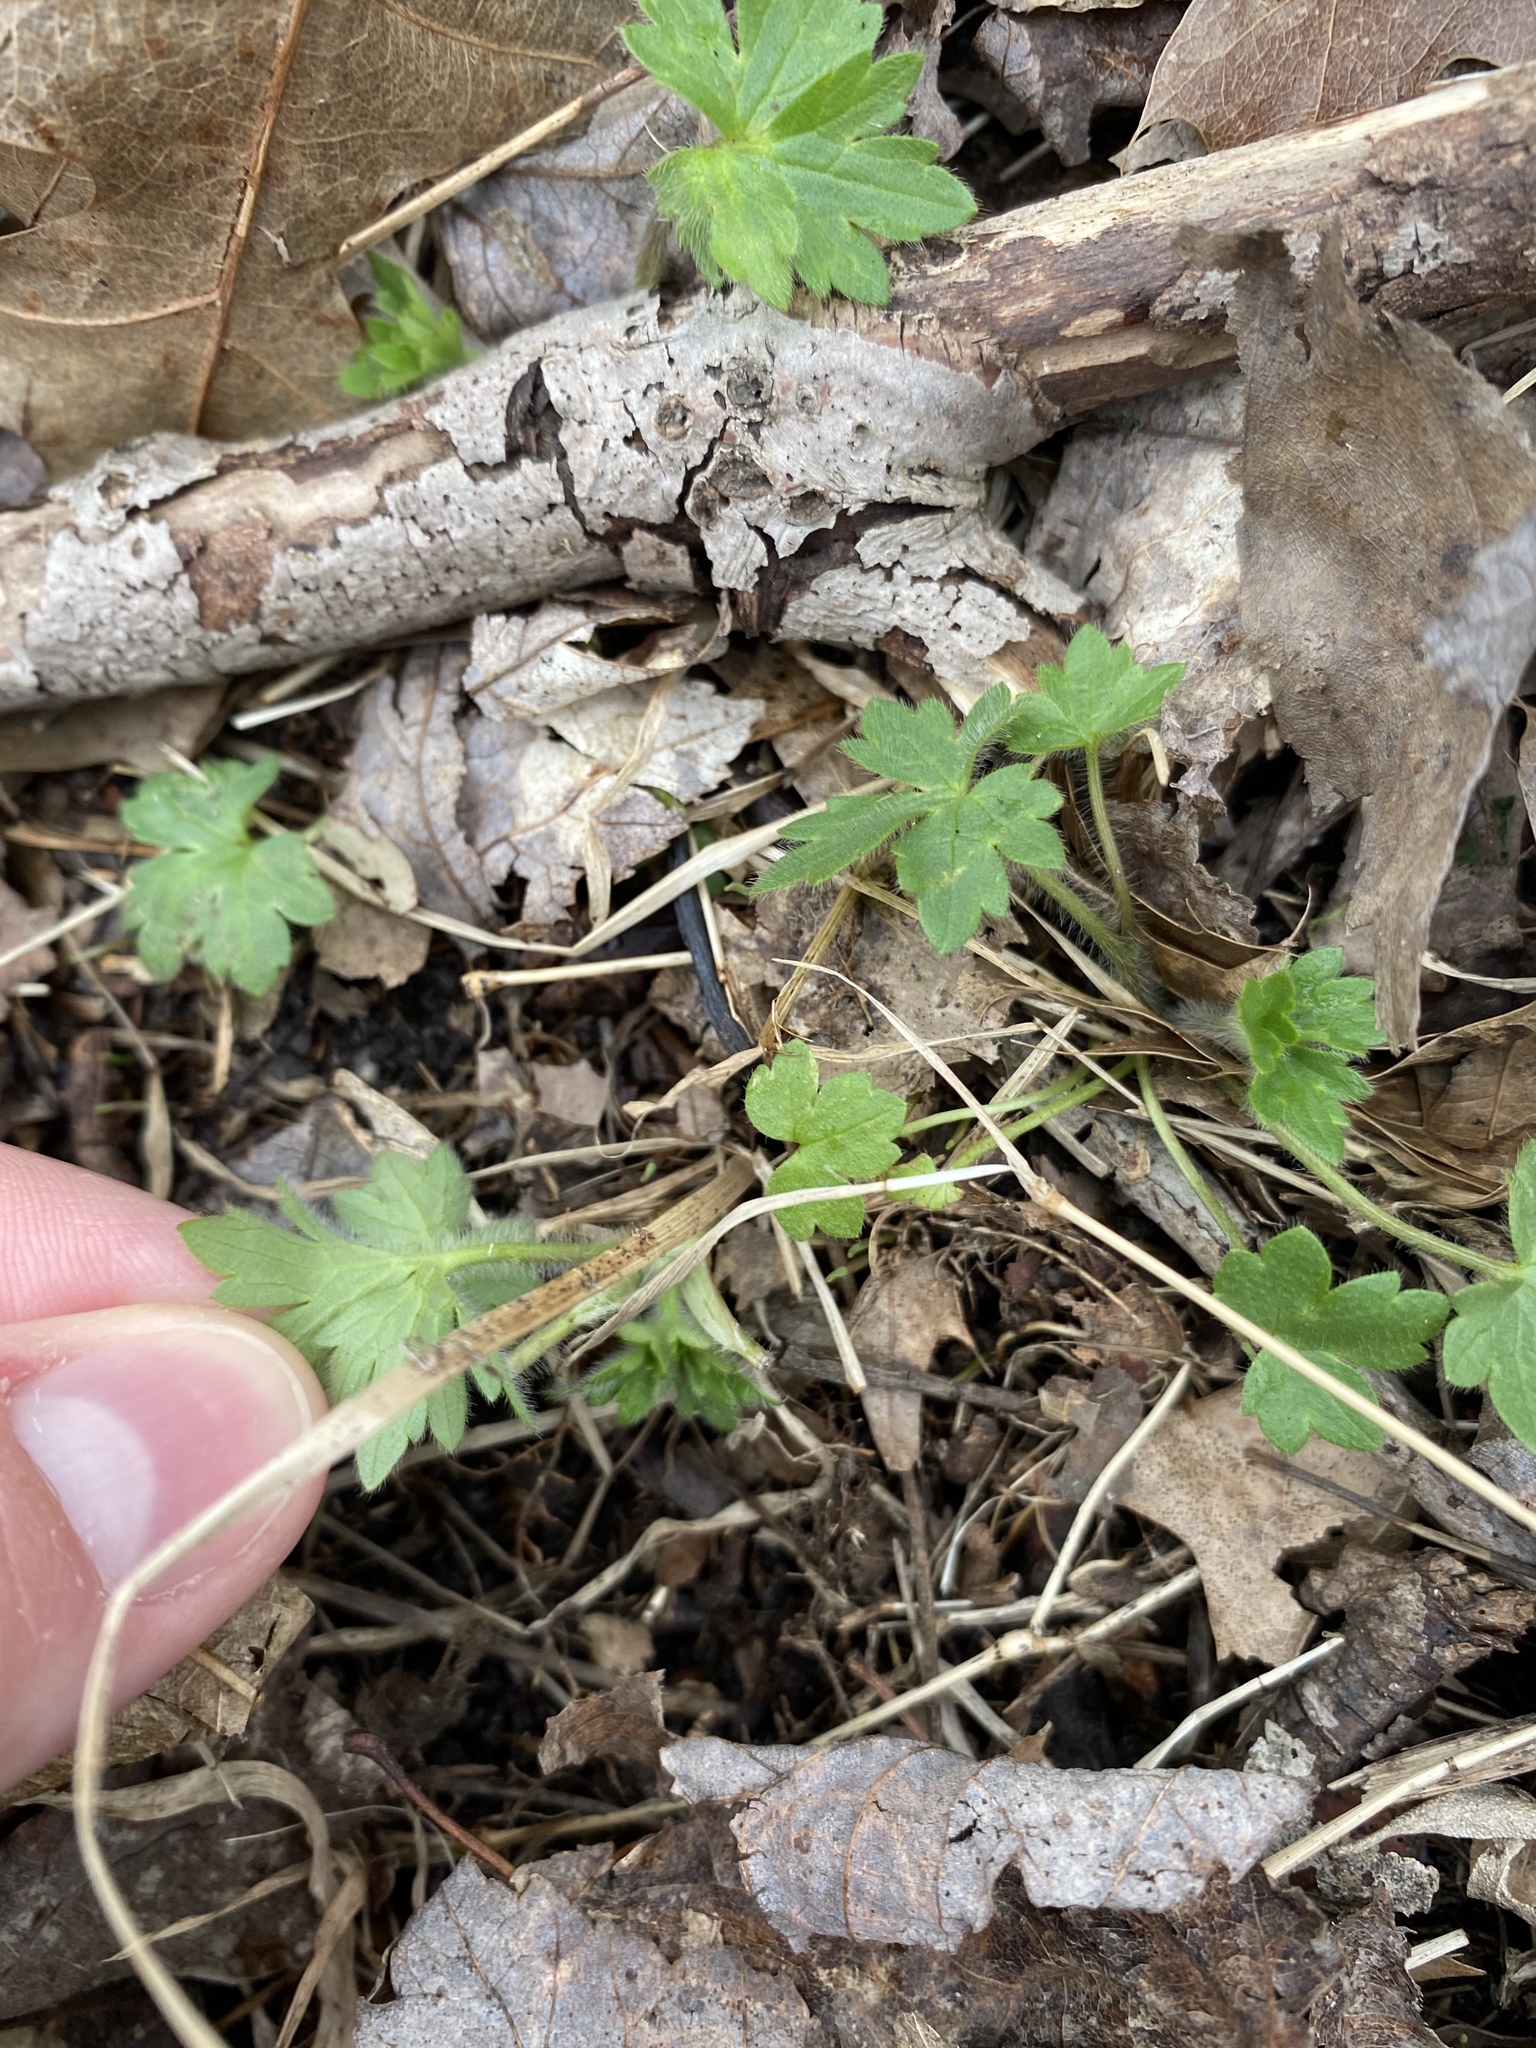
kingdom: Plantae
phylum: Tracheophyta
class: Magnoliopsida
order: Ranunculales
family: Ranunculaceae
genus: Ranunculus
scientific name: Ranunculus repens
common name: Creeping buttercup
